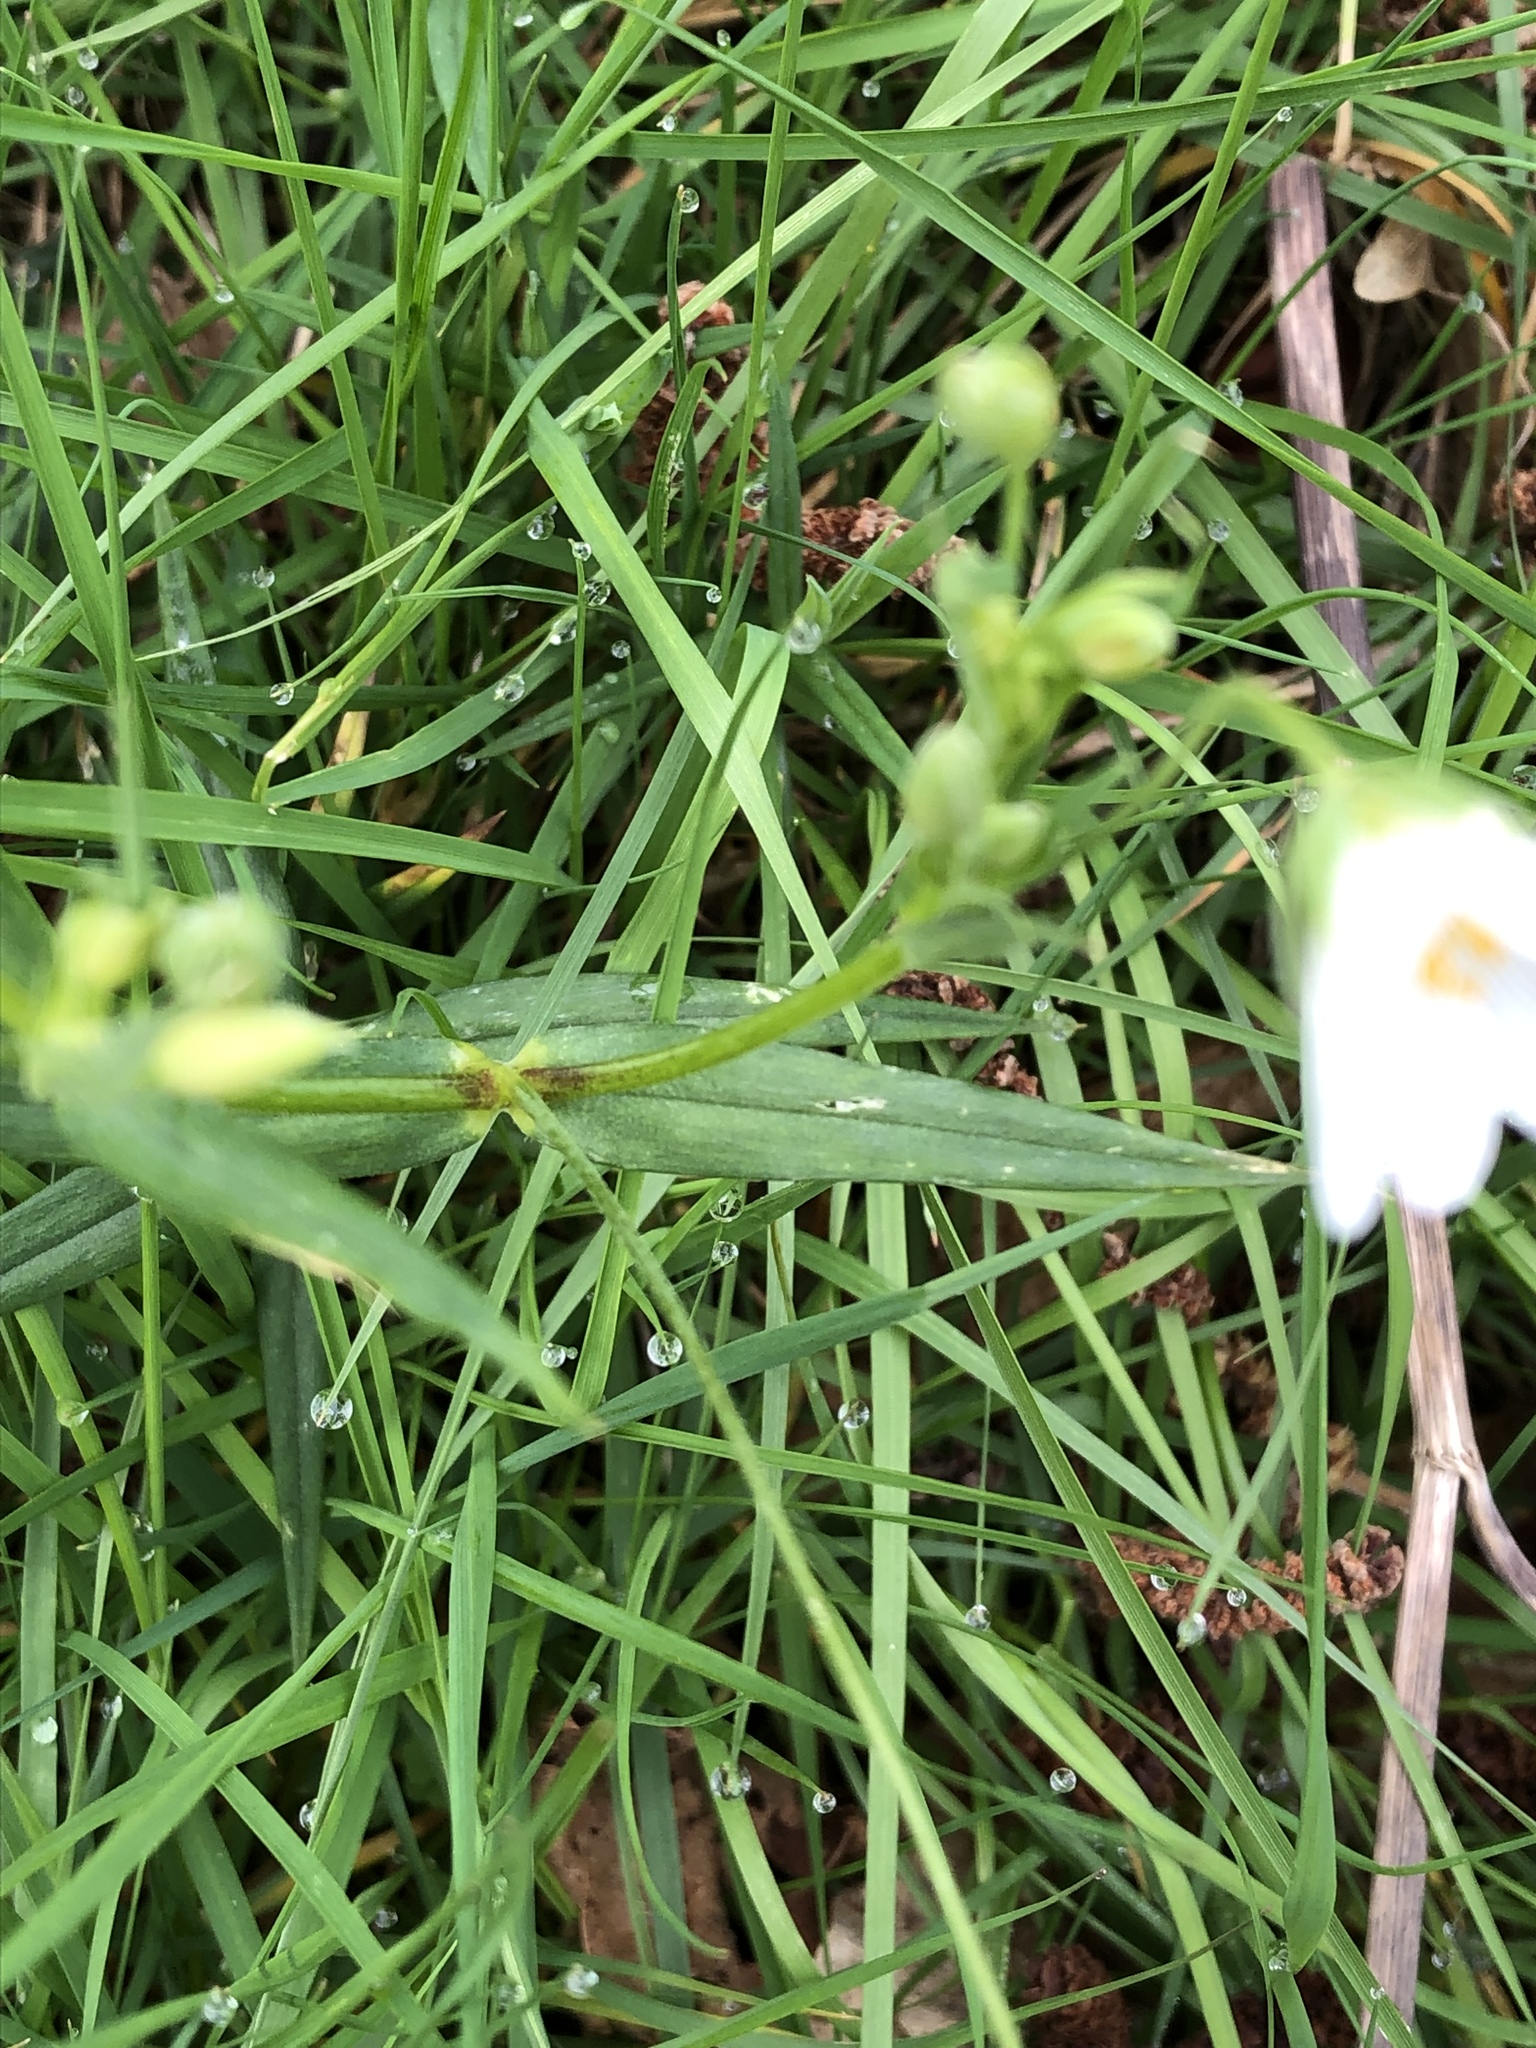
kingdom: Plantae
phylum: Tracheophyta
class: Magnoliopsida
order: Caryophyllales
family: Caryophyllaceae
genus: Rabelera
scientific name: Rabelera holostea
